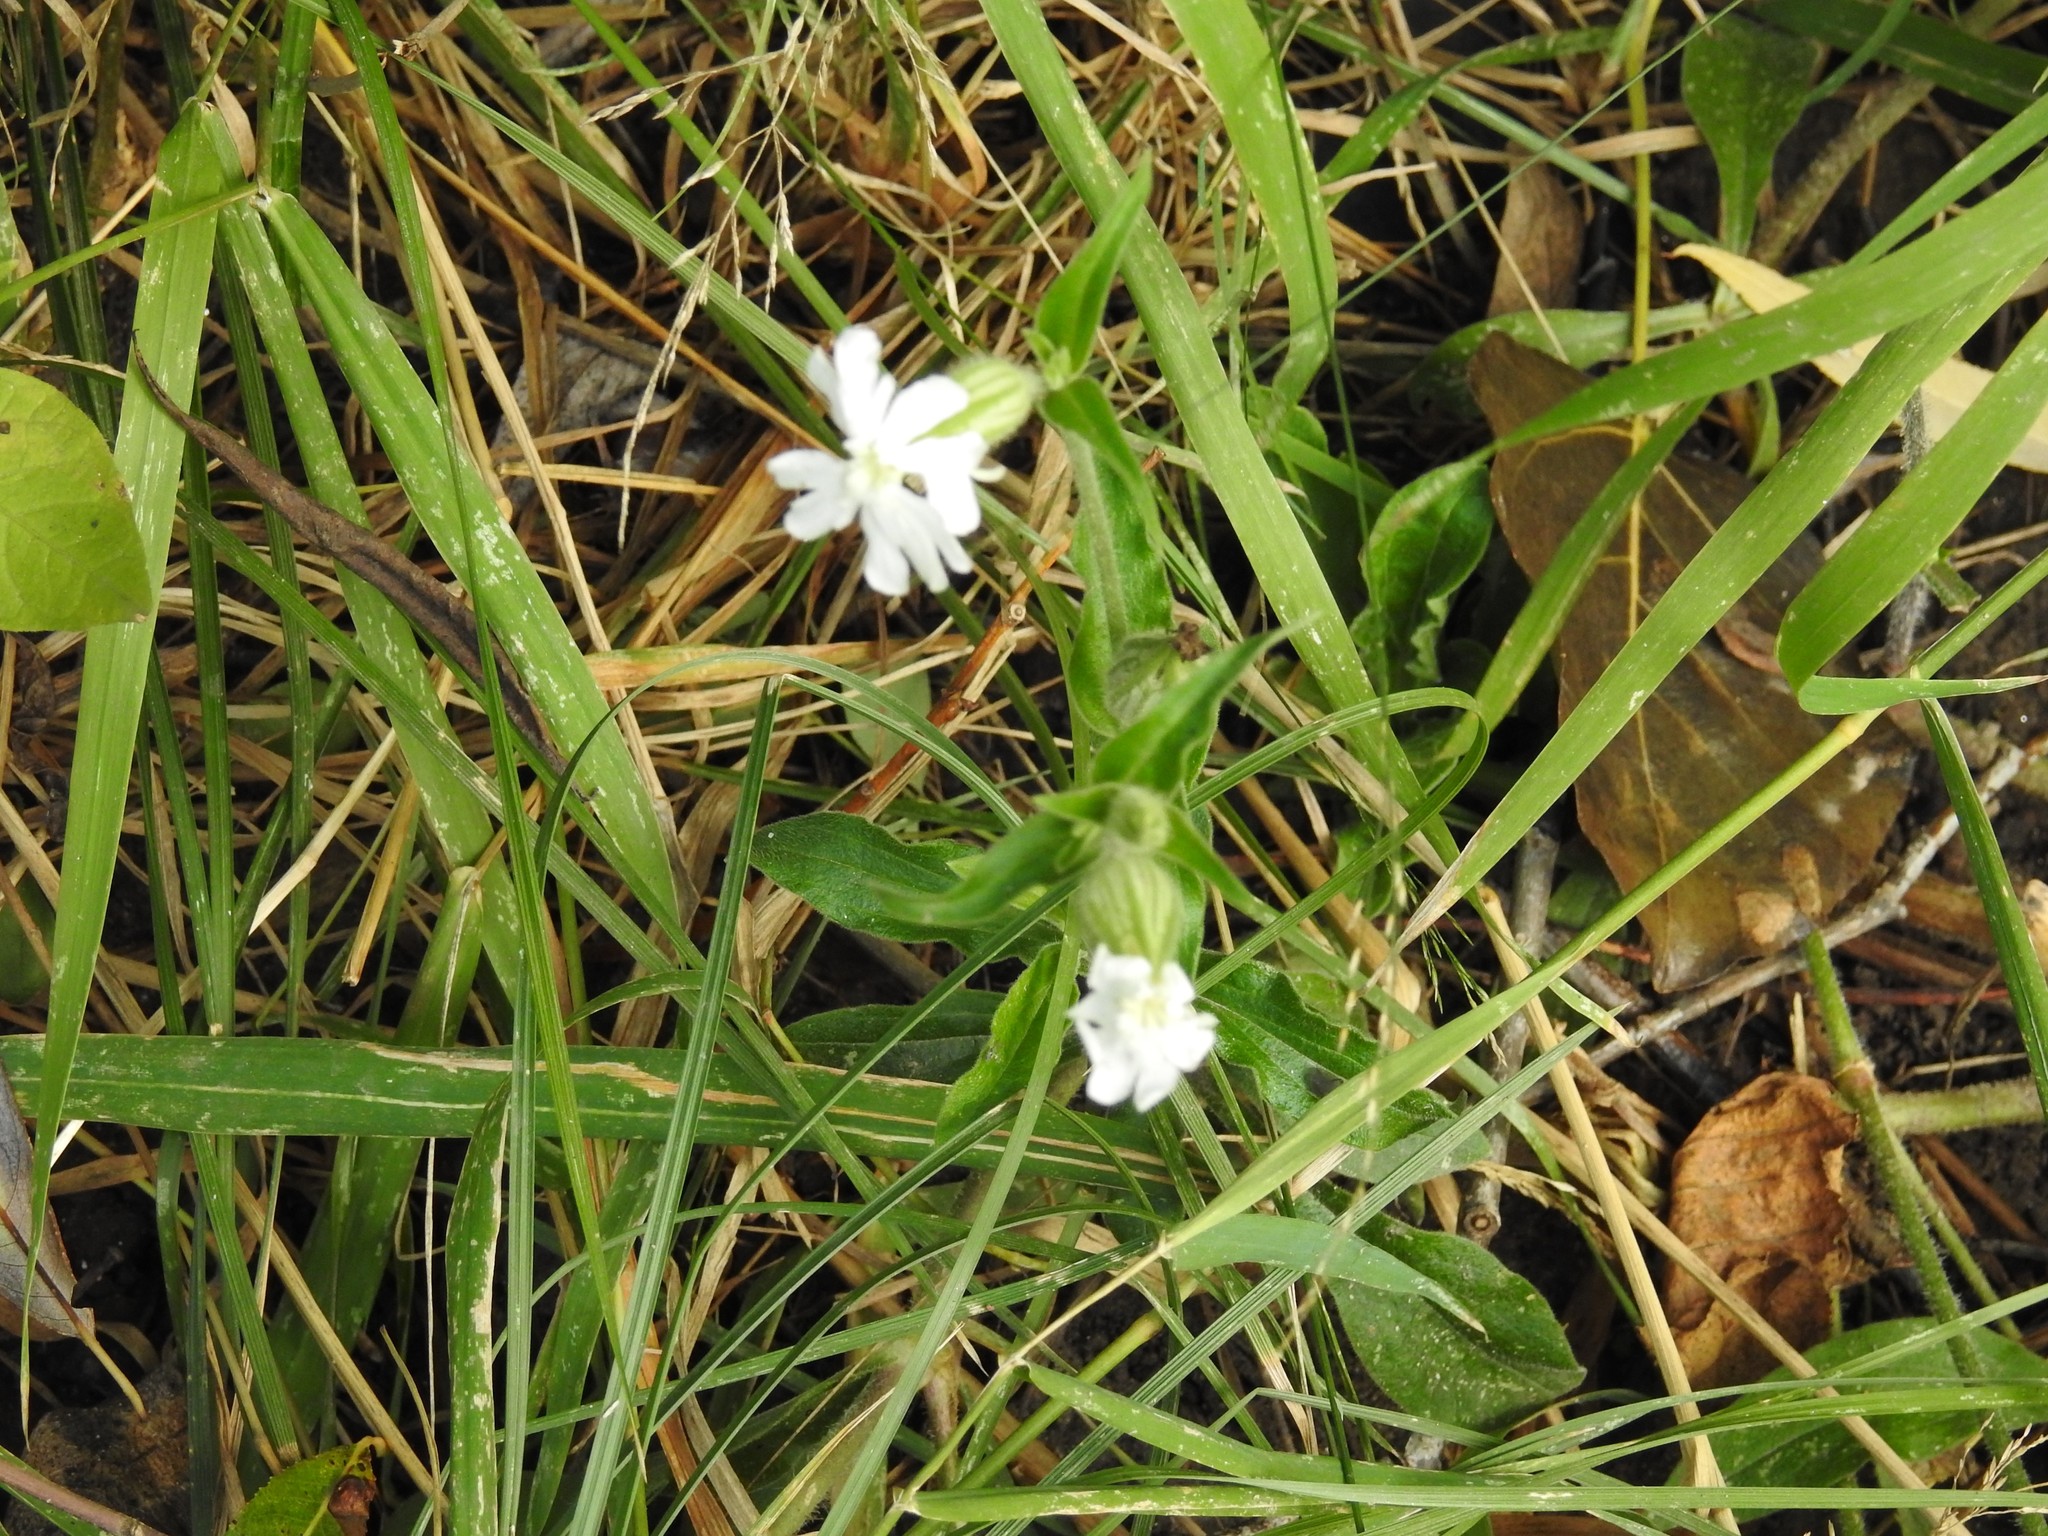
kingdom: Plantae
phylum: Tracheophyta
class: Magnoliopsida
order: Caryophyllales
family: Caryophyllaceae
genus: Silene
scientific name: Silene latifolia
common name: White campion
